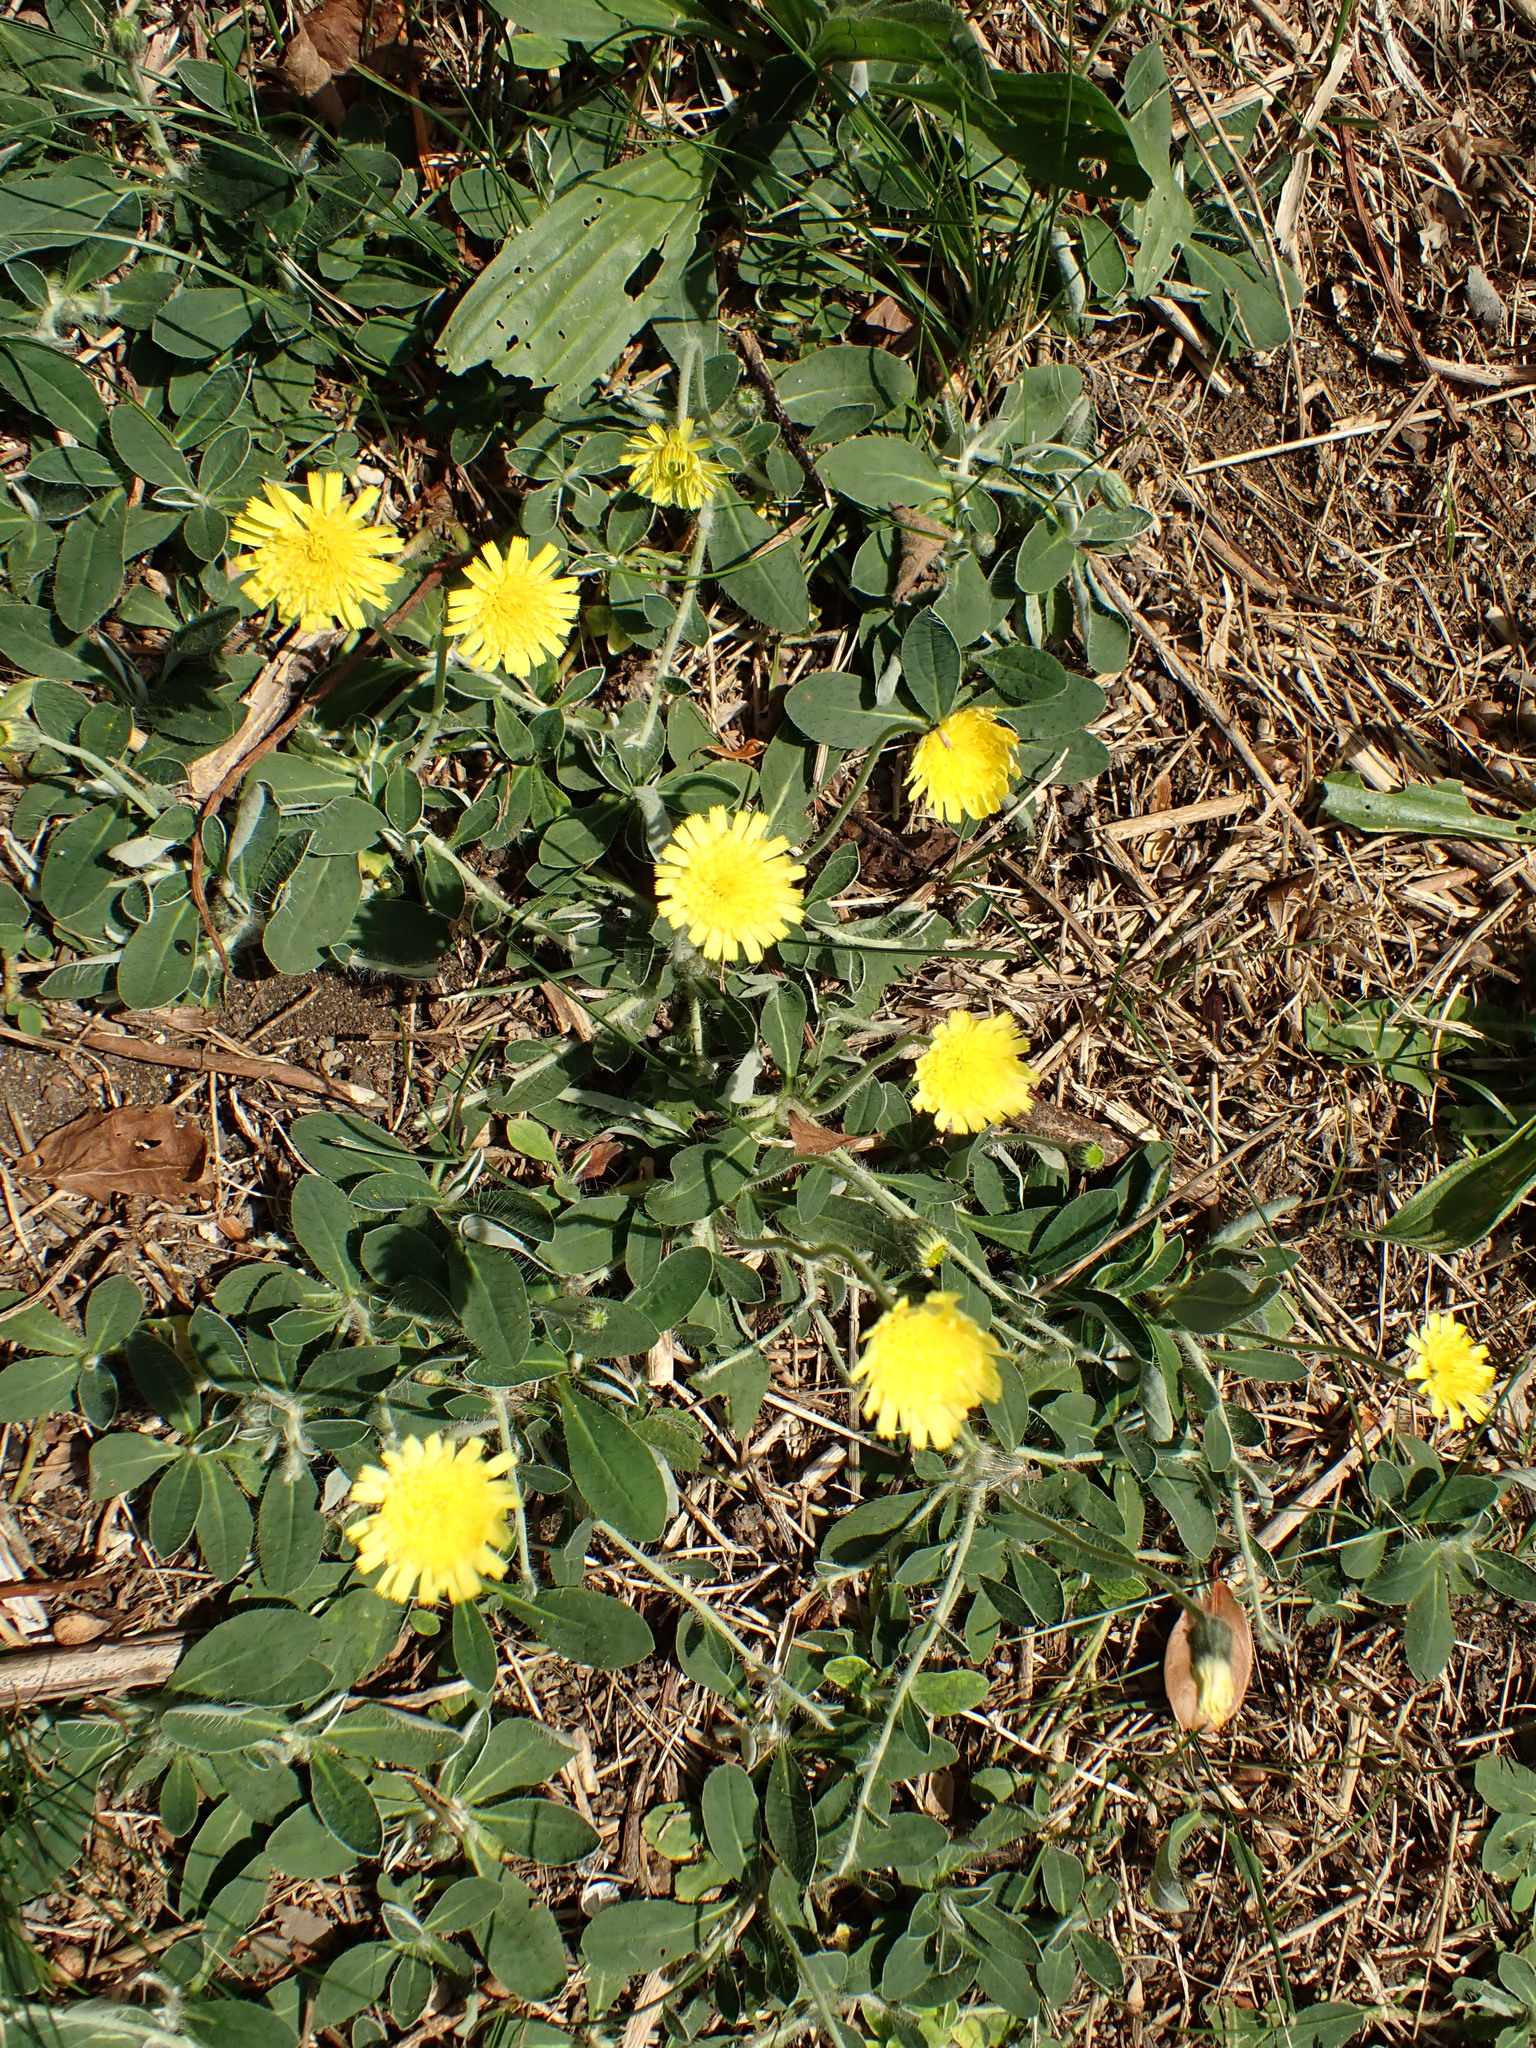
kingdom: Plantae
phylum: Tracheophyta
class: Magnoliopsida
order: Asterales
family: Asteraceae
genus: Pilosella
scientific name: Pilosella officinarum
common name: Mouse-ear hawkweed
